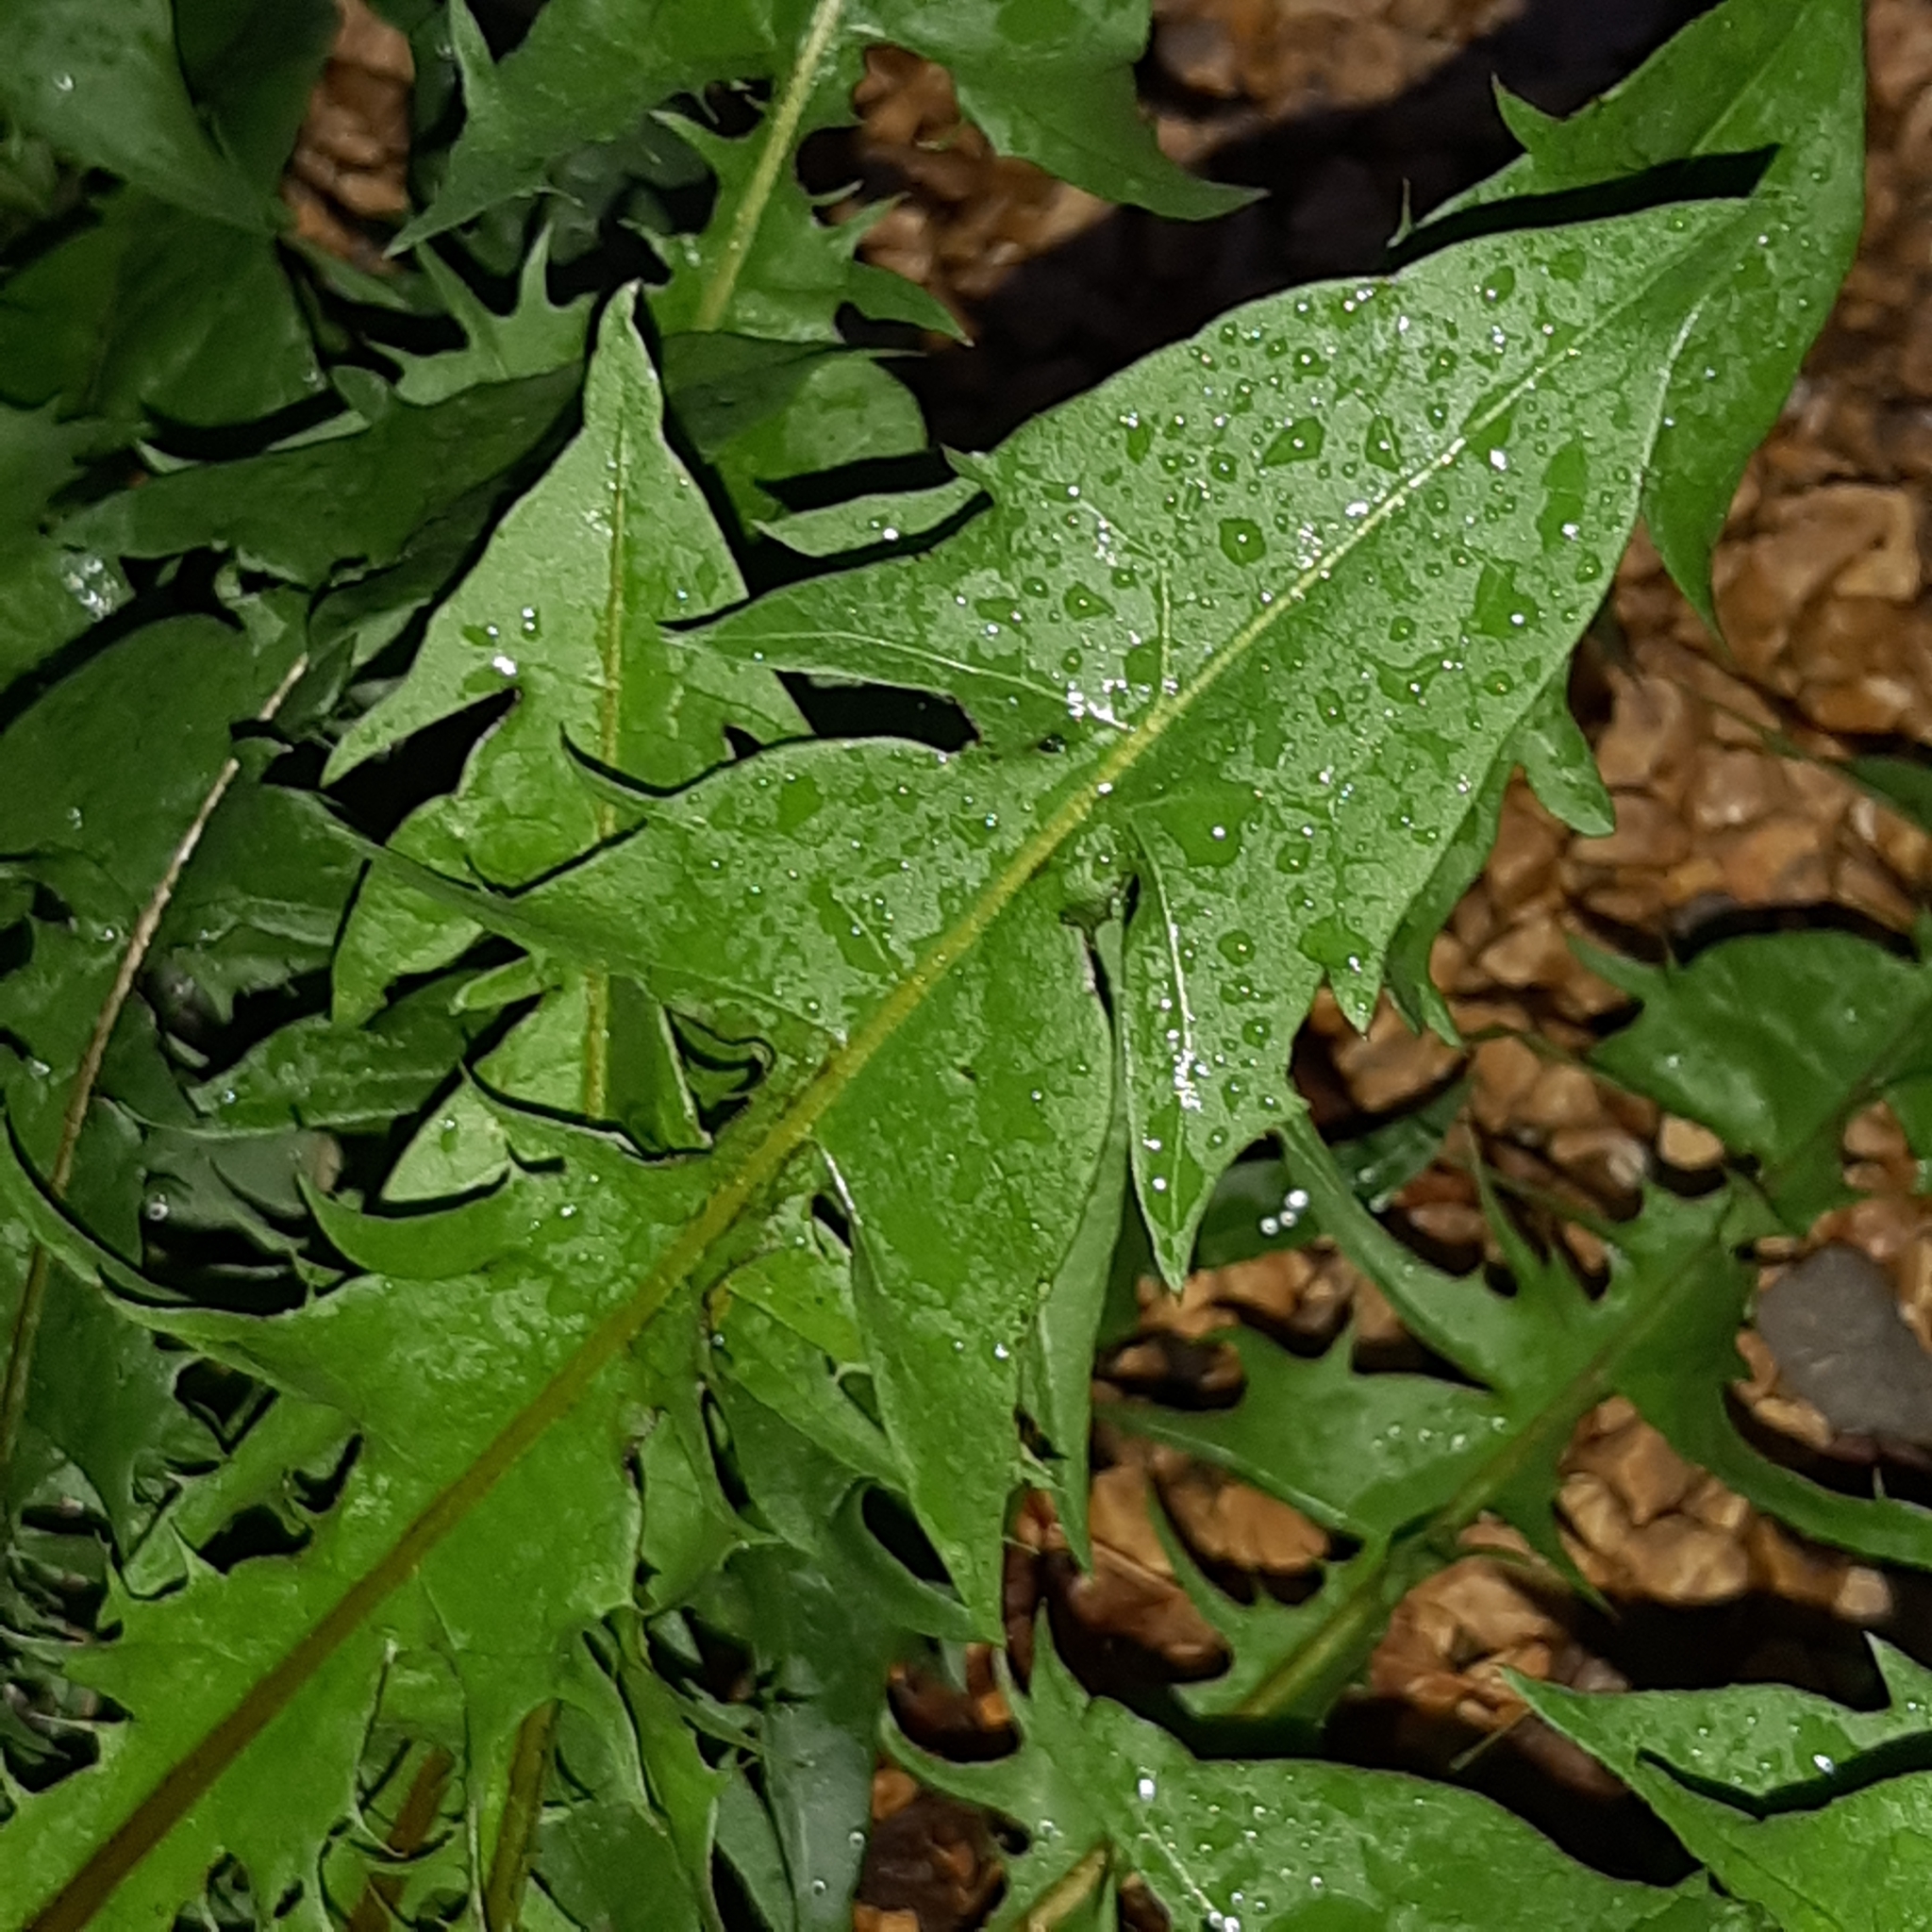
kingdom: Plantae
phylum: Tracheophyta
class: Magnoliopsida
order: Asterales
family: Asteraceae
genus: Taraxacum
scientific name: Taraxacum officinale
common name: Common dandelion
